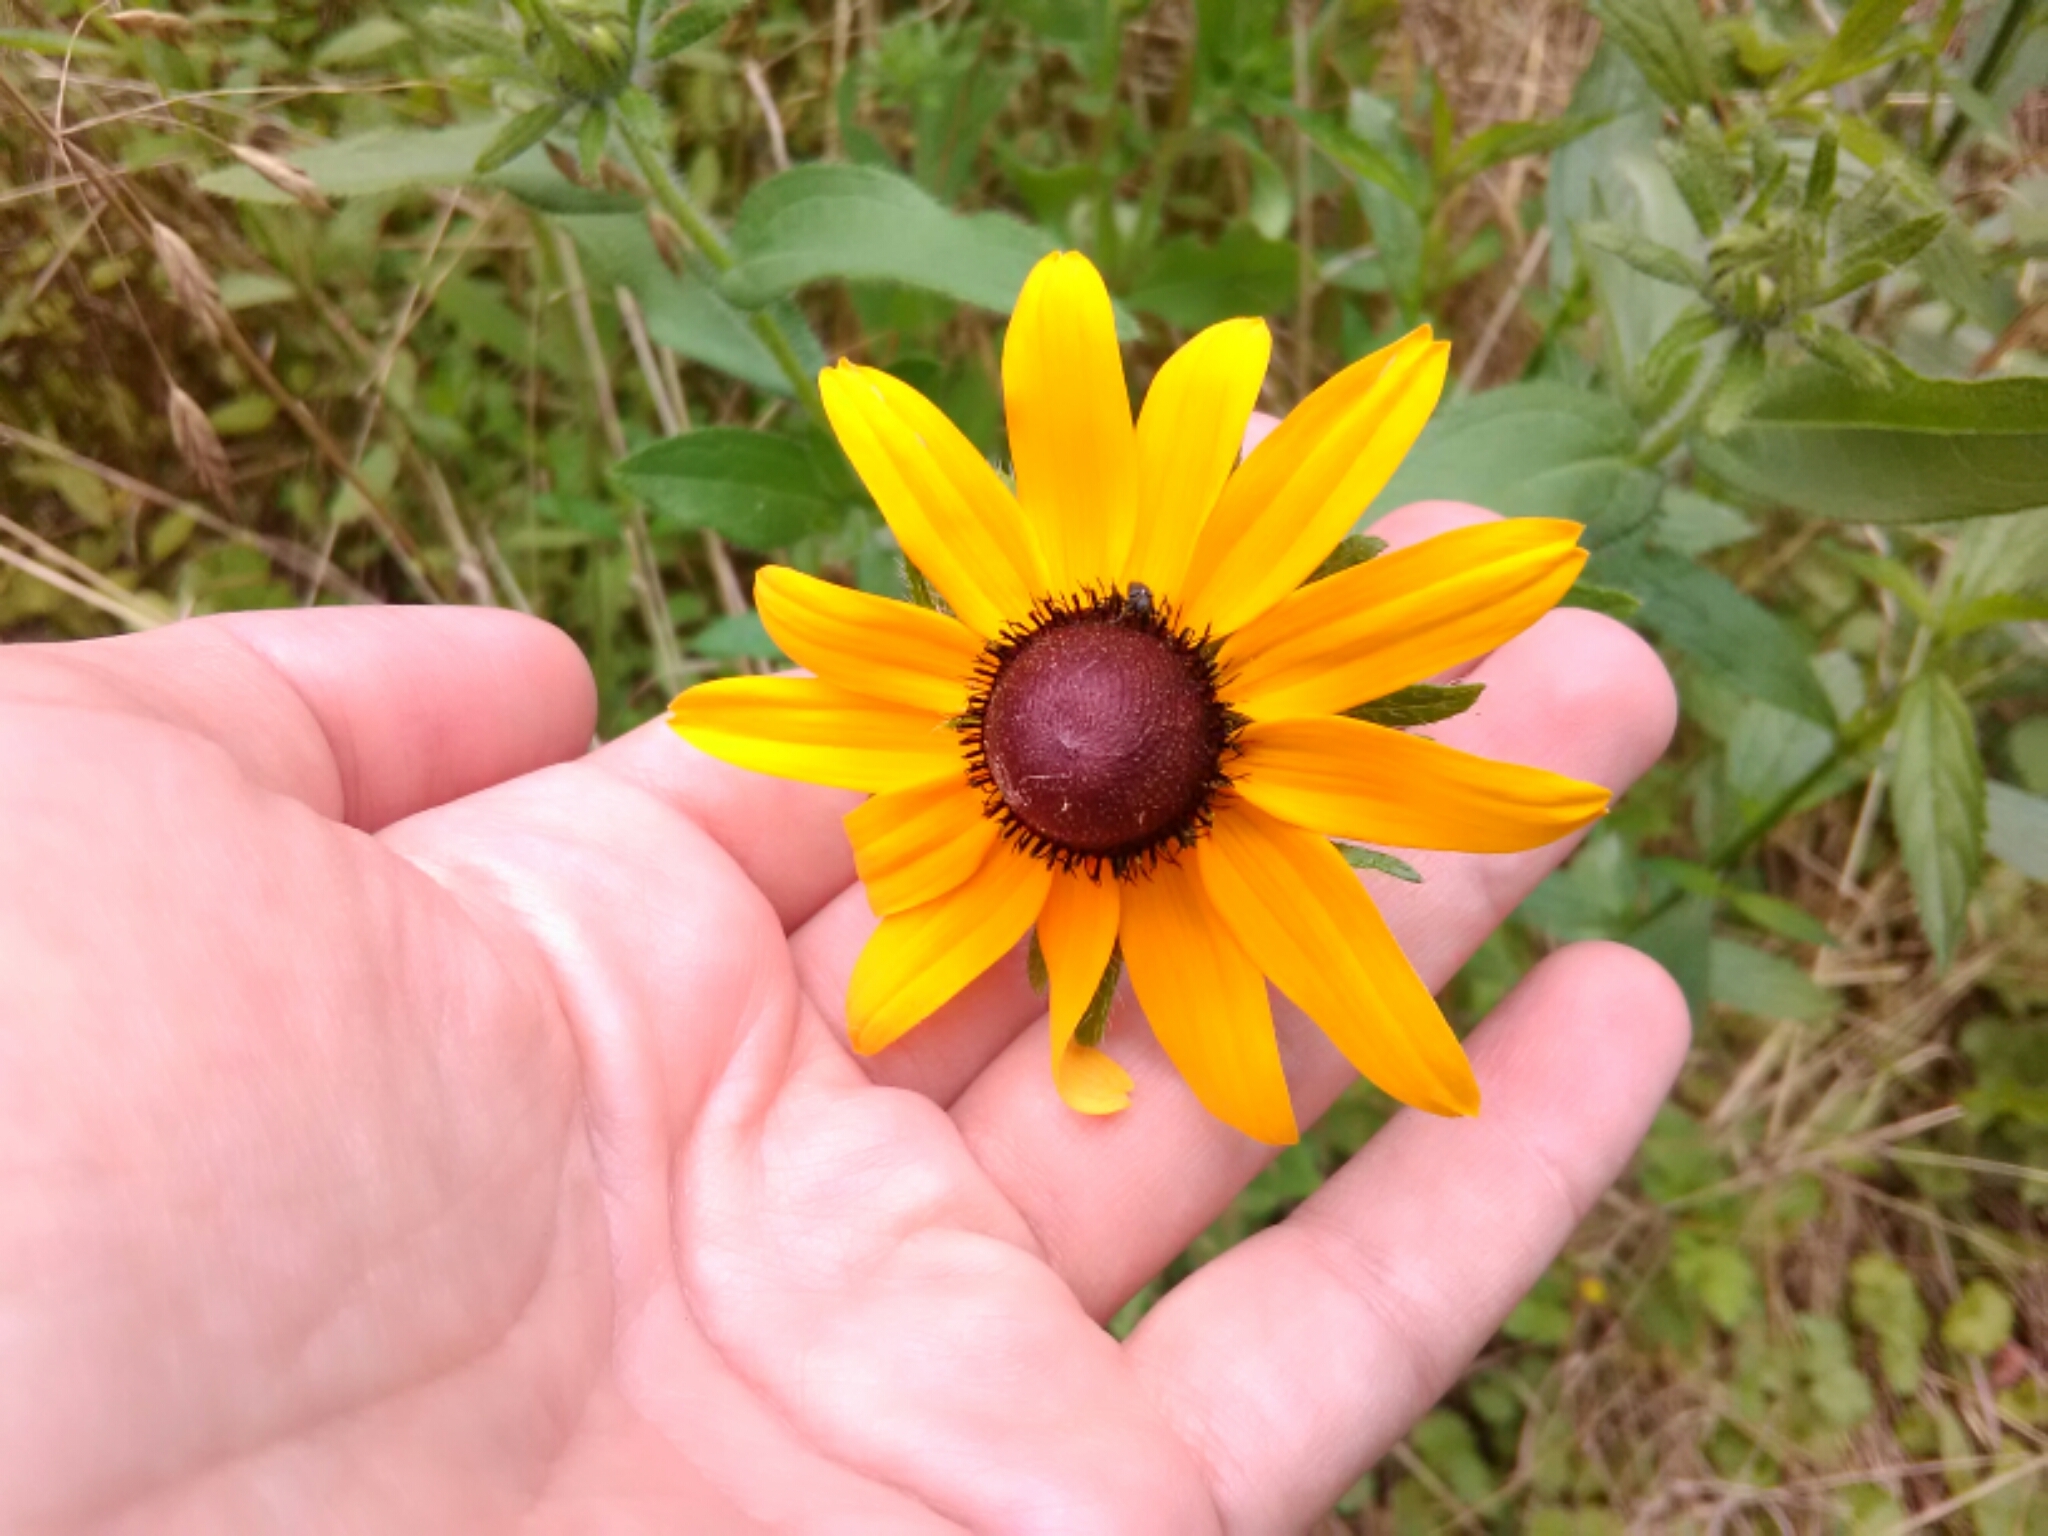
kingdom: Plantae
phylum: Tracheophyta
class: Magnoliopsida
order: Asterales
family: Asteraceae
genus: Rudbeckia
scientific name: Rudbeckia hirta
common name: Black-eyed-susan
